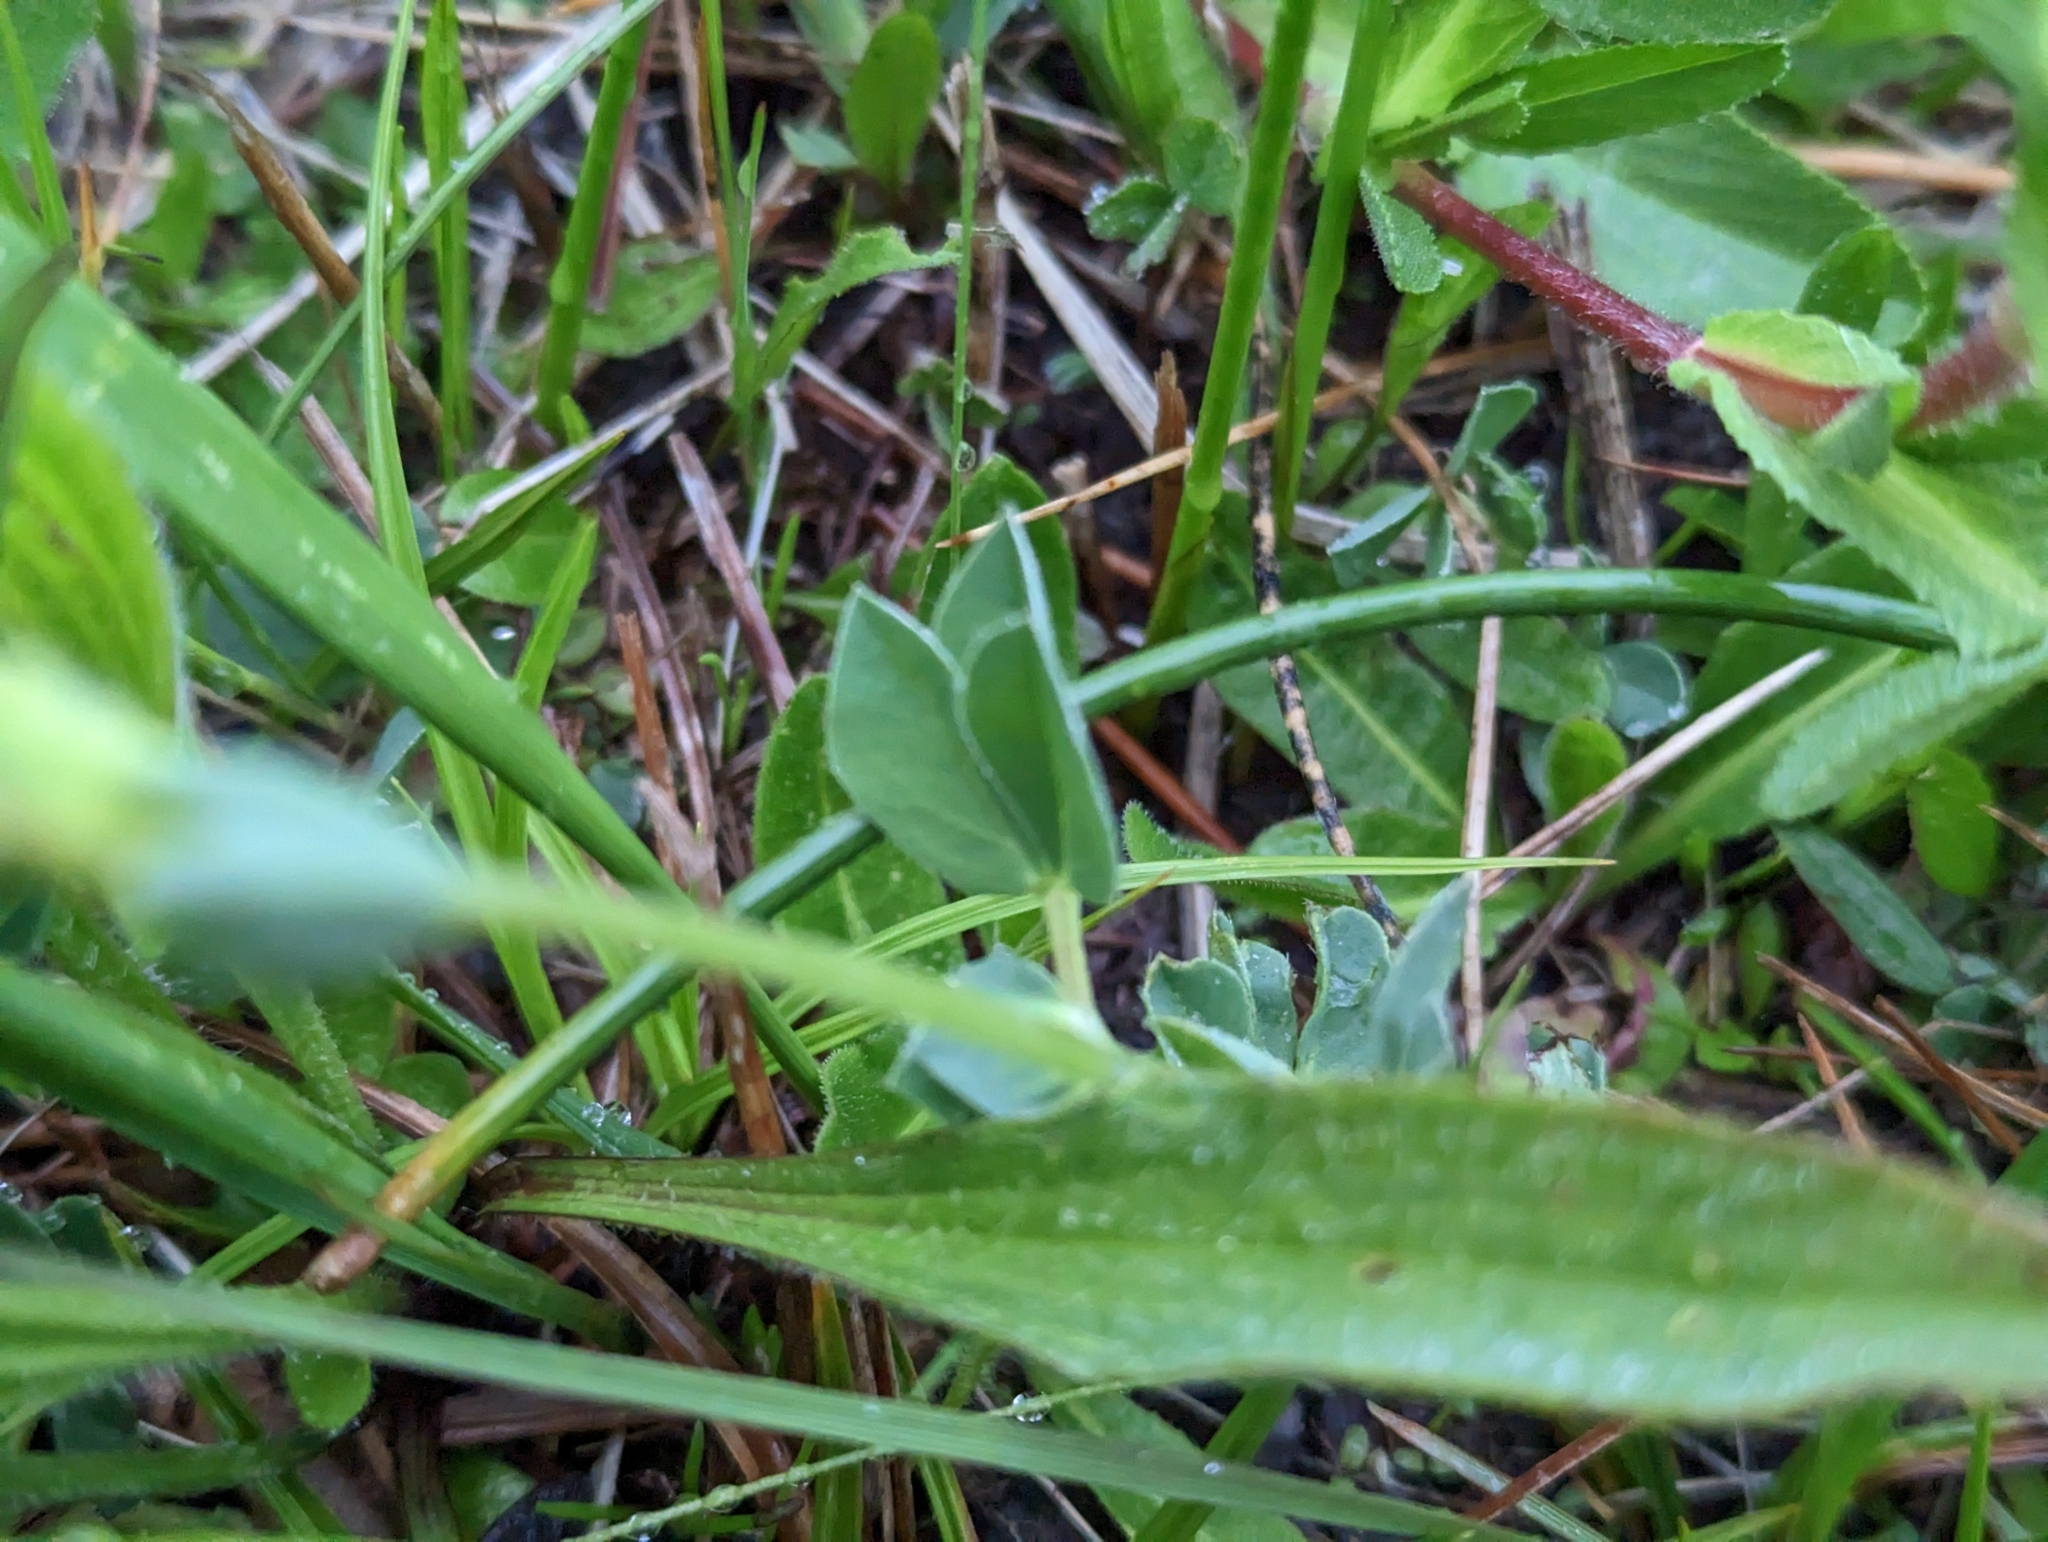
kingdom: Plantae
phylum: Tracheophyta
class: Magnoliopsida
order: Fabales
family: Fabaceae
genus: Lotus
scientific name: Lotus maritimus
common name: Dragon's-teeth
